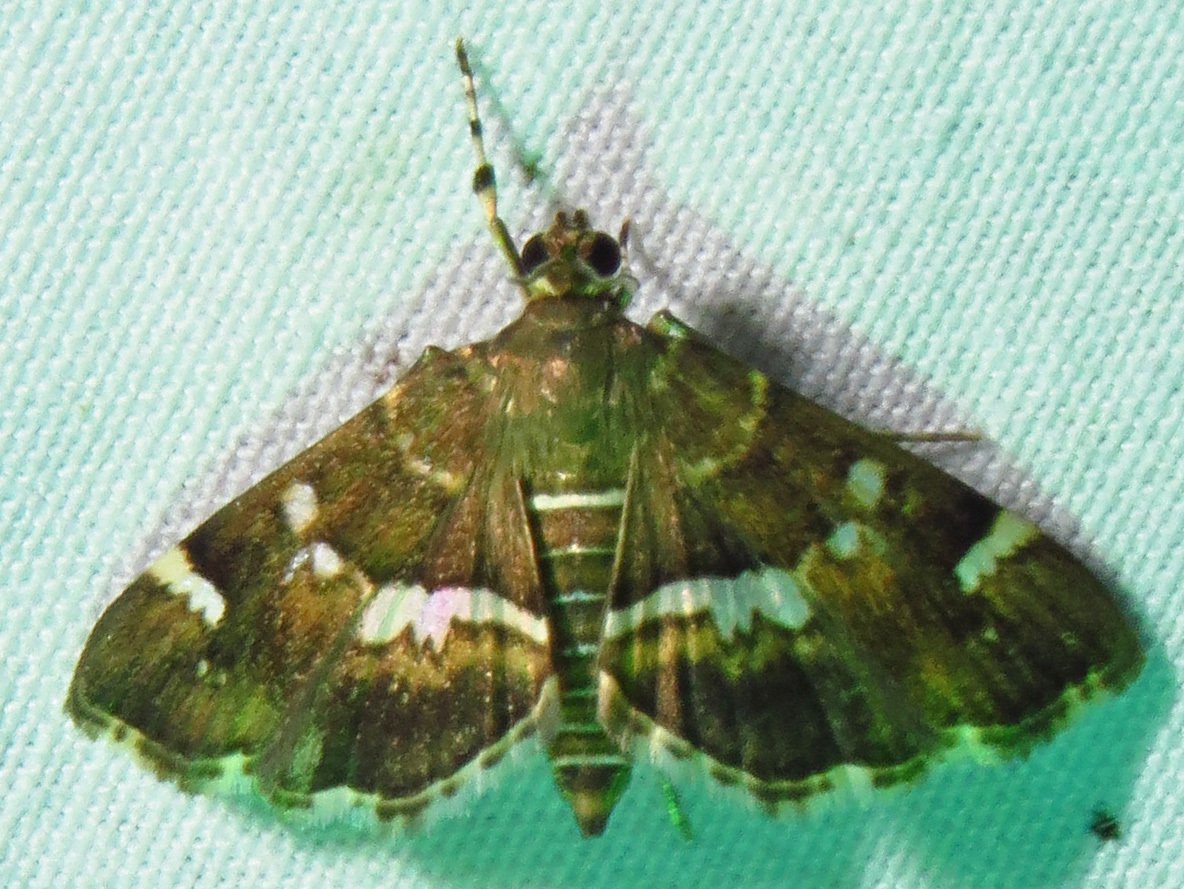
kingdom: Animalia
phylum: Arthropoda
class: Insecta
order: Lepidoptera
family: Crambidae
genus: Hymenia
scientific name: Hymenia perspectalis
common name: Spotted beet webworm
